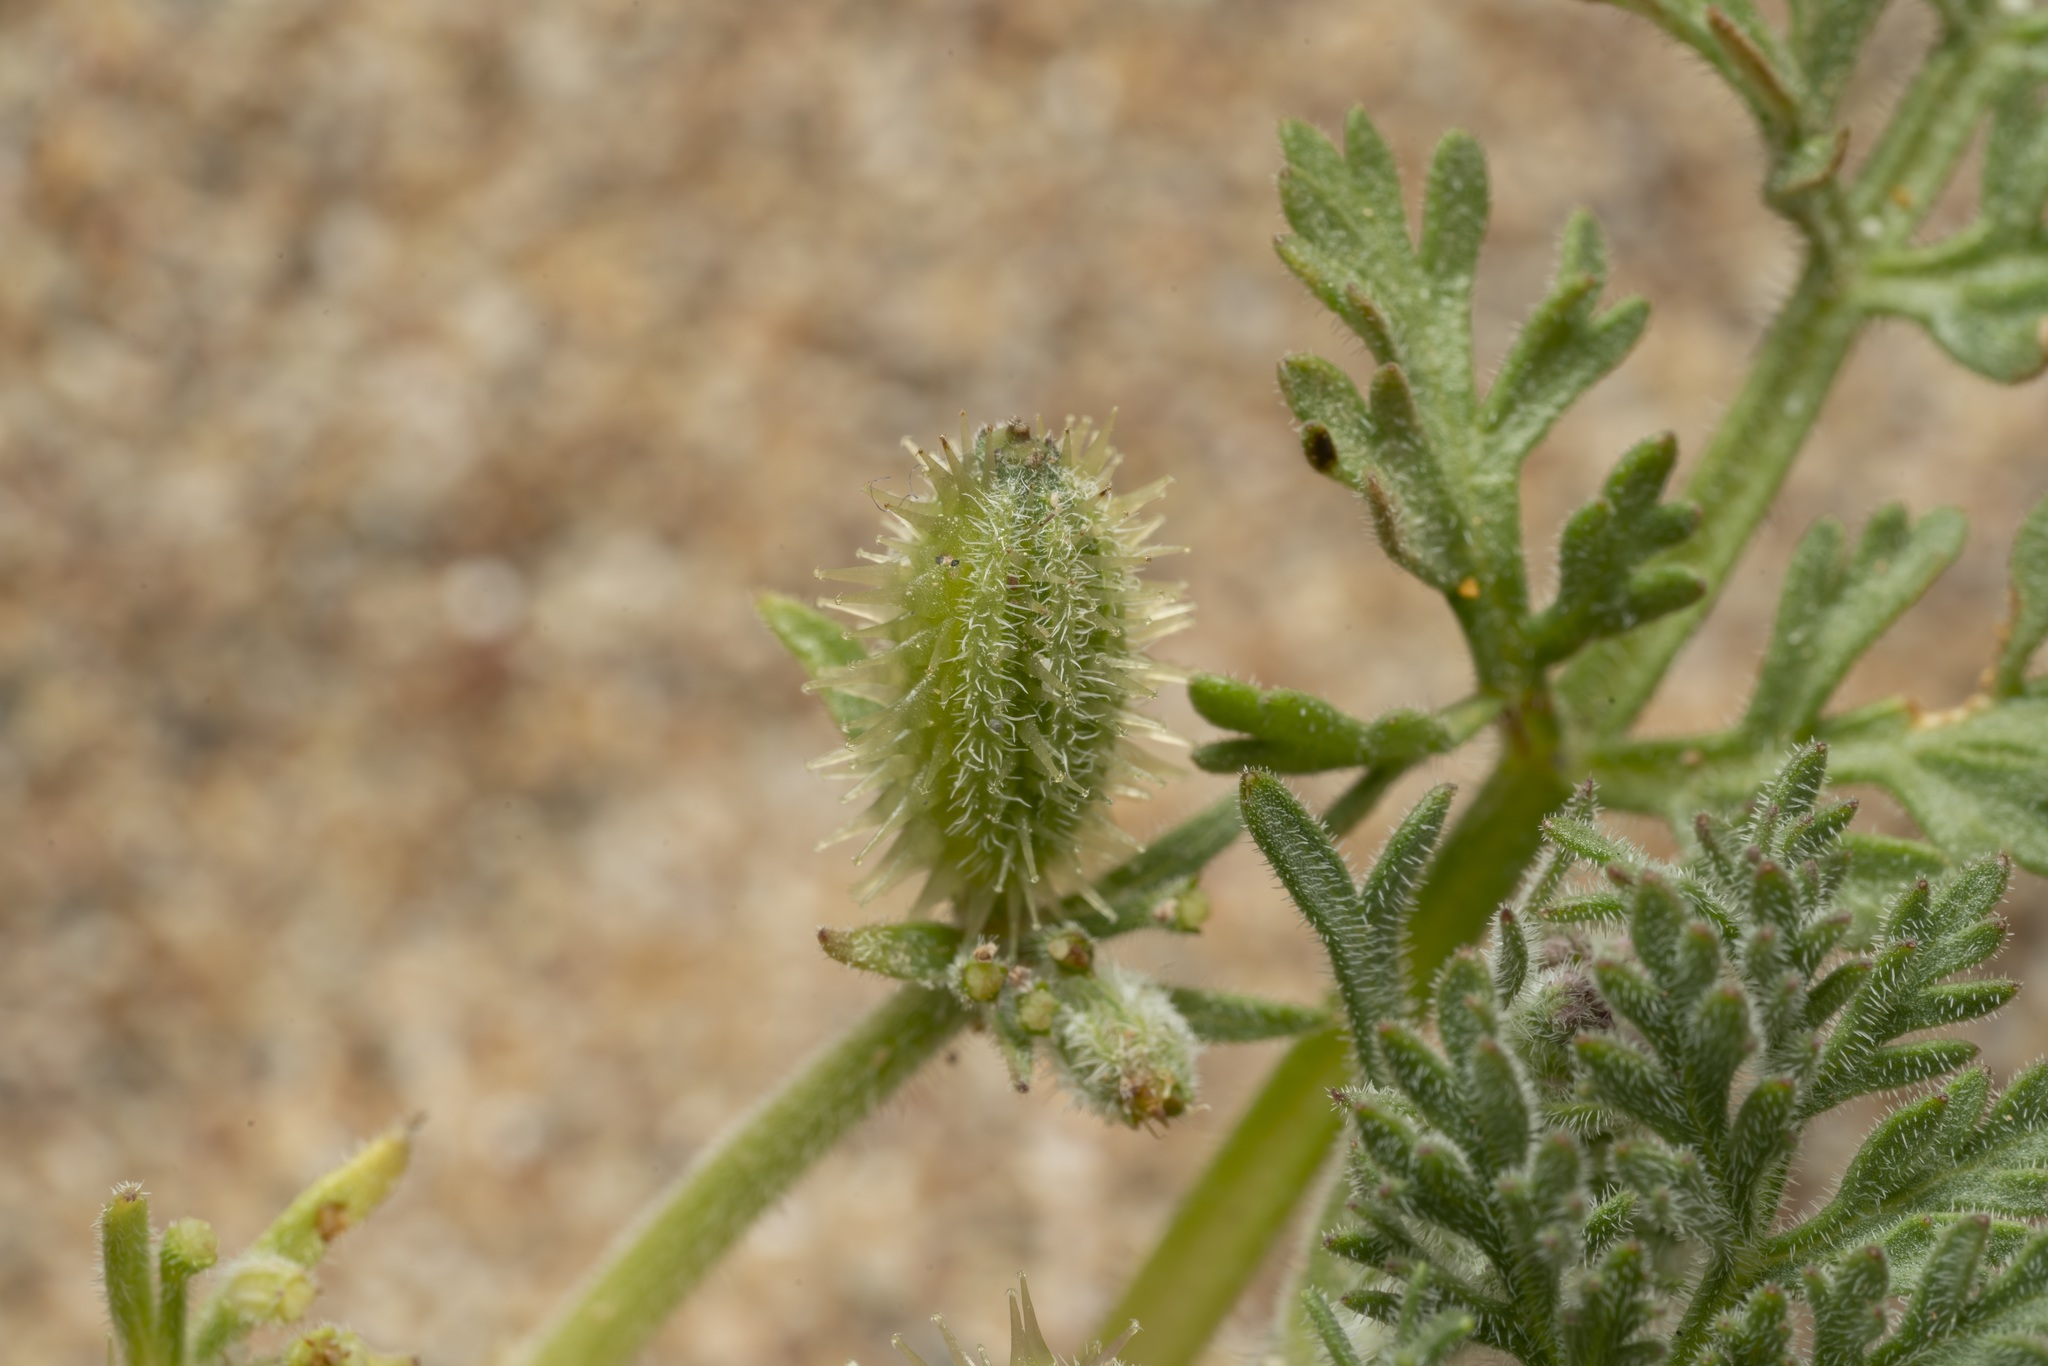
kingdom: Plantae
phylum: Tracheophyta
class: Magnoliopsida
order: Apiales
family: Apiaceae
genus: Daucus
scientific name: Daucus pumilus
